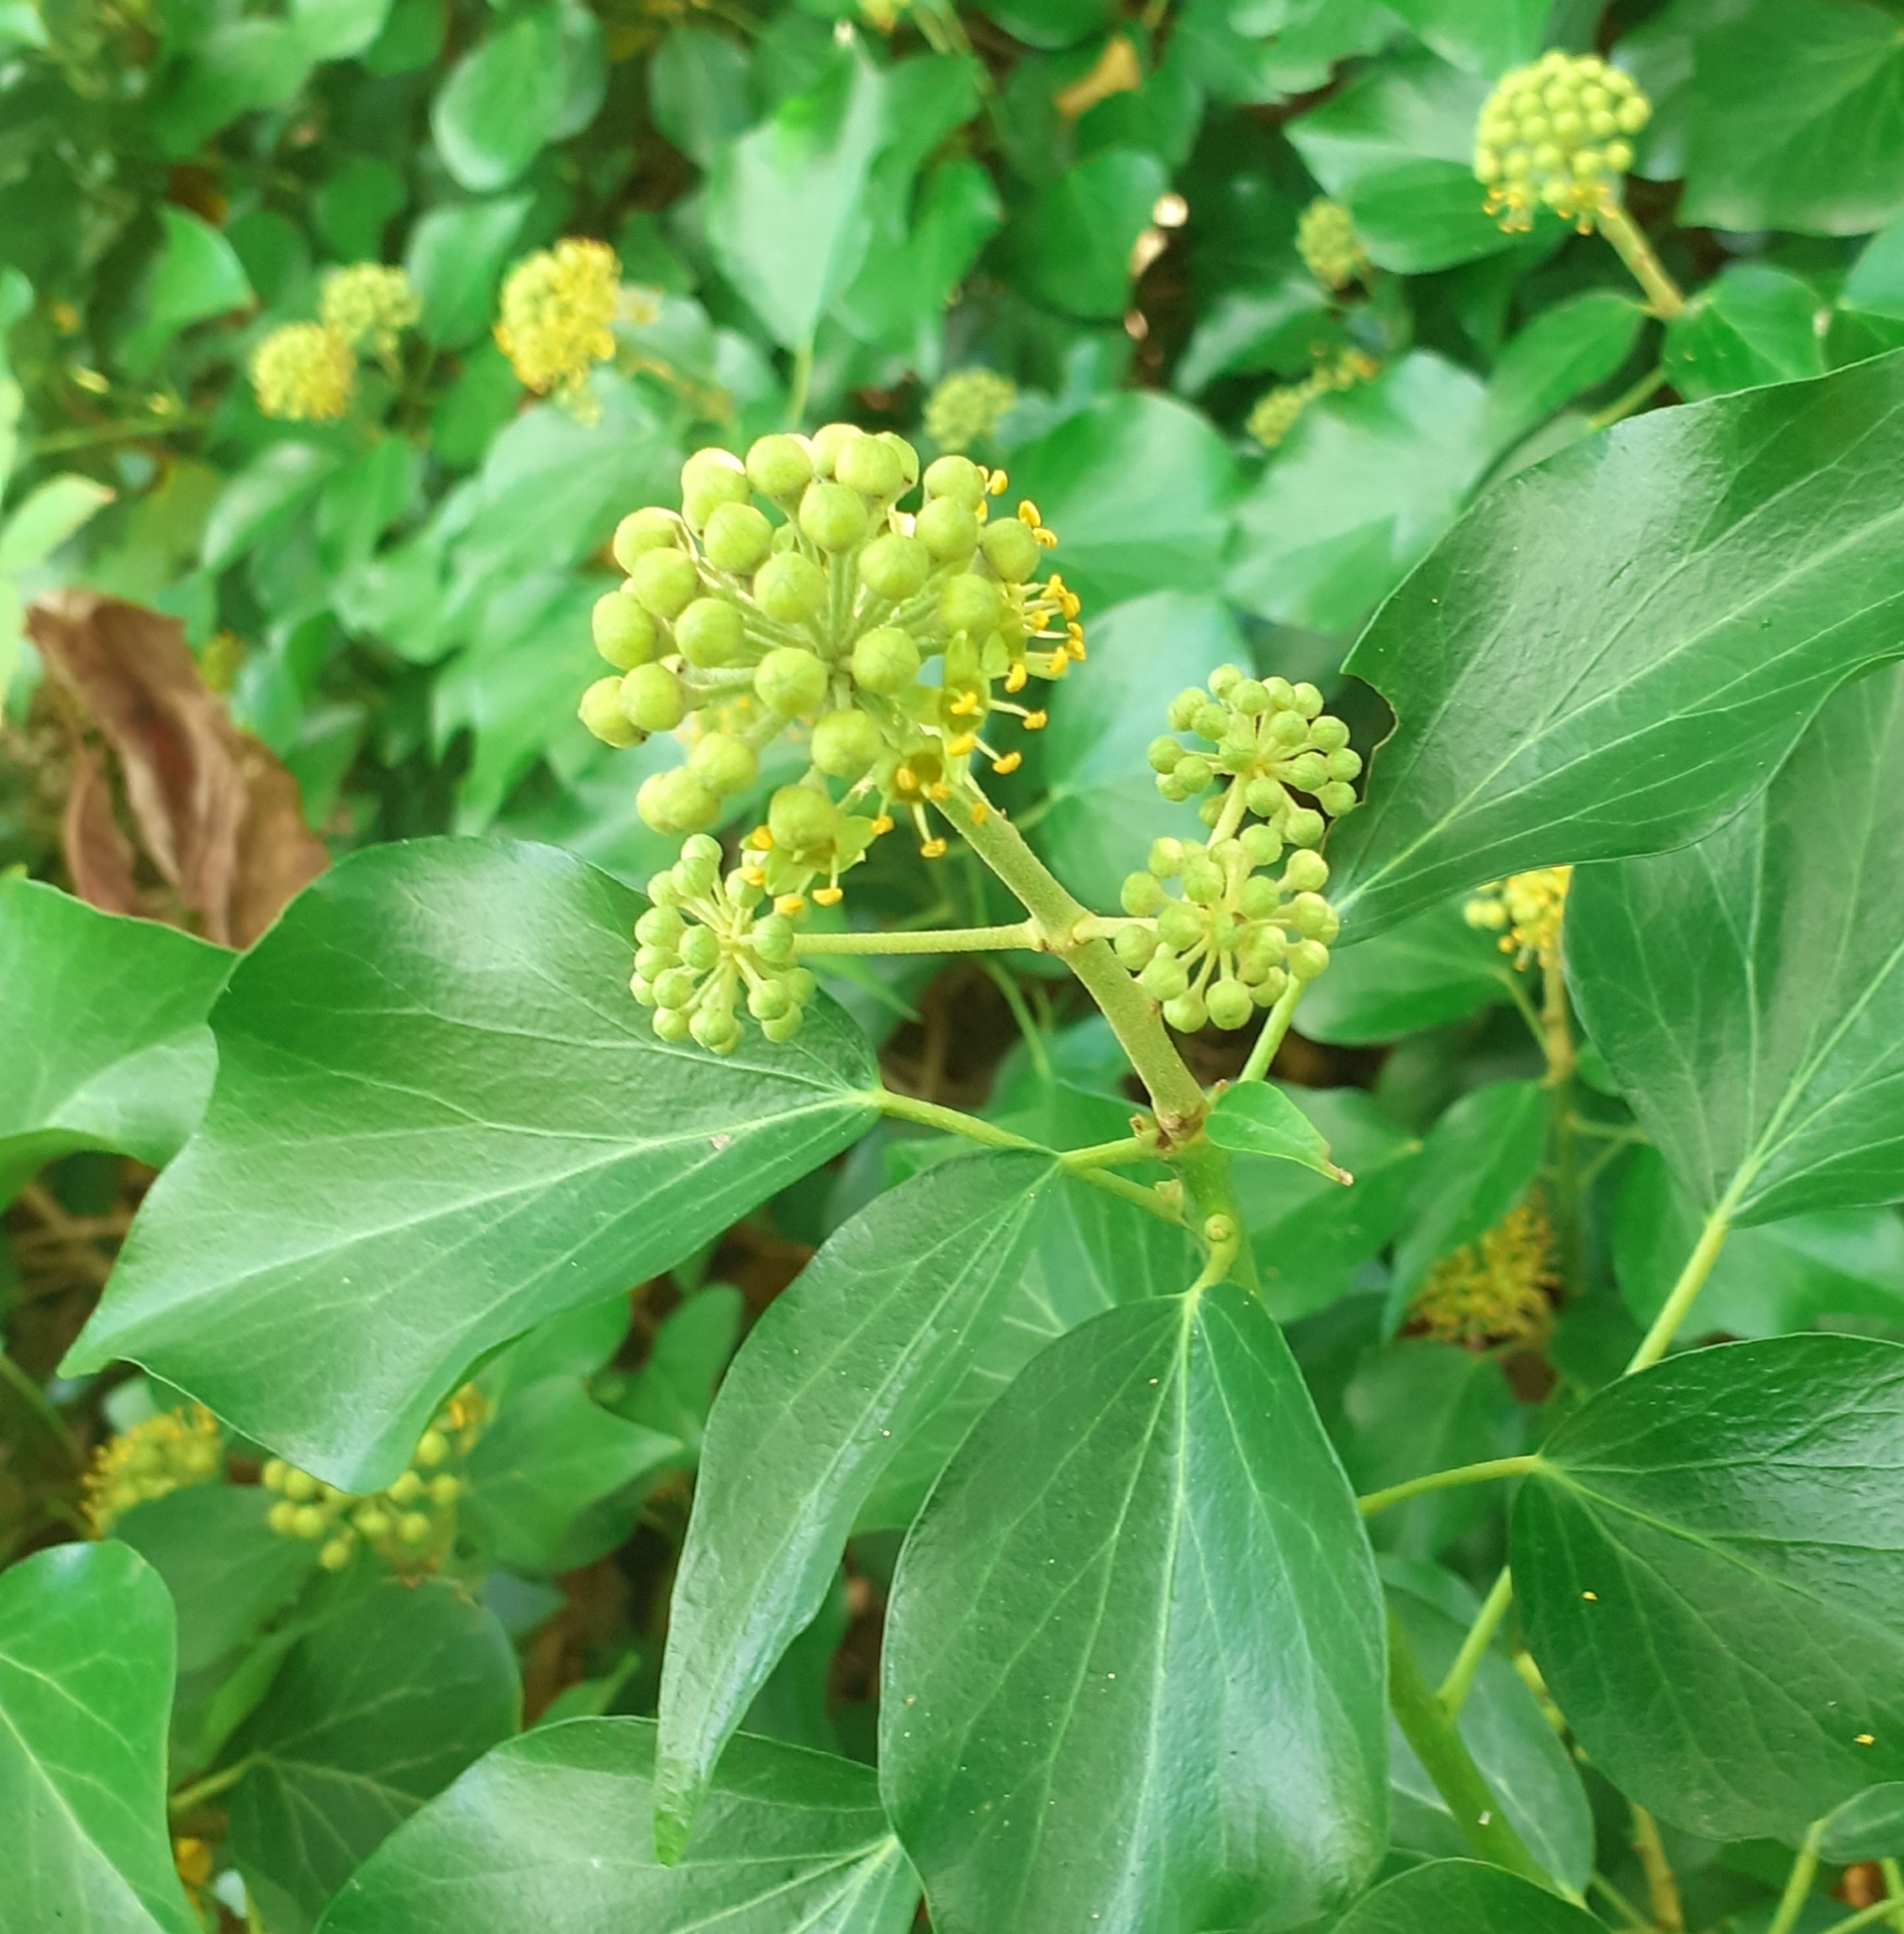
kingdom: Plantae
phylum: Tracheophyta
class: Magnoliopsida
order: Apiales
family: Araliaceae
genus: Hedera
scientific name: Hedera helix
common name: Ivy
